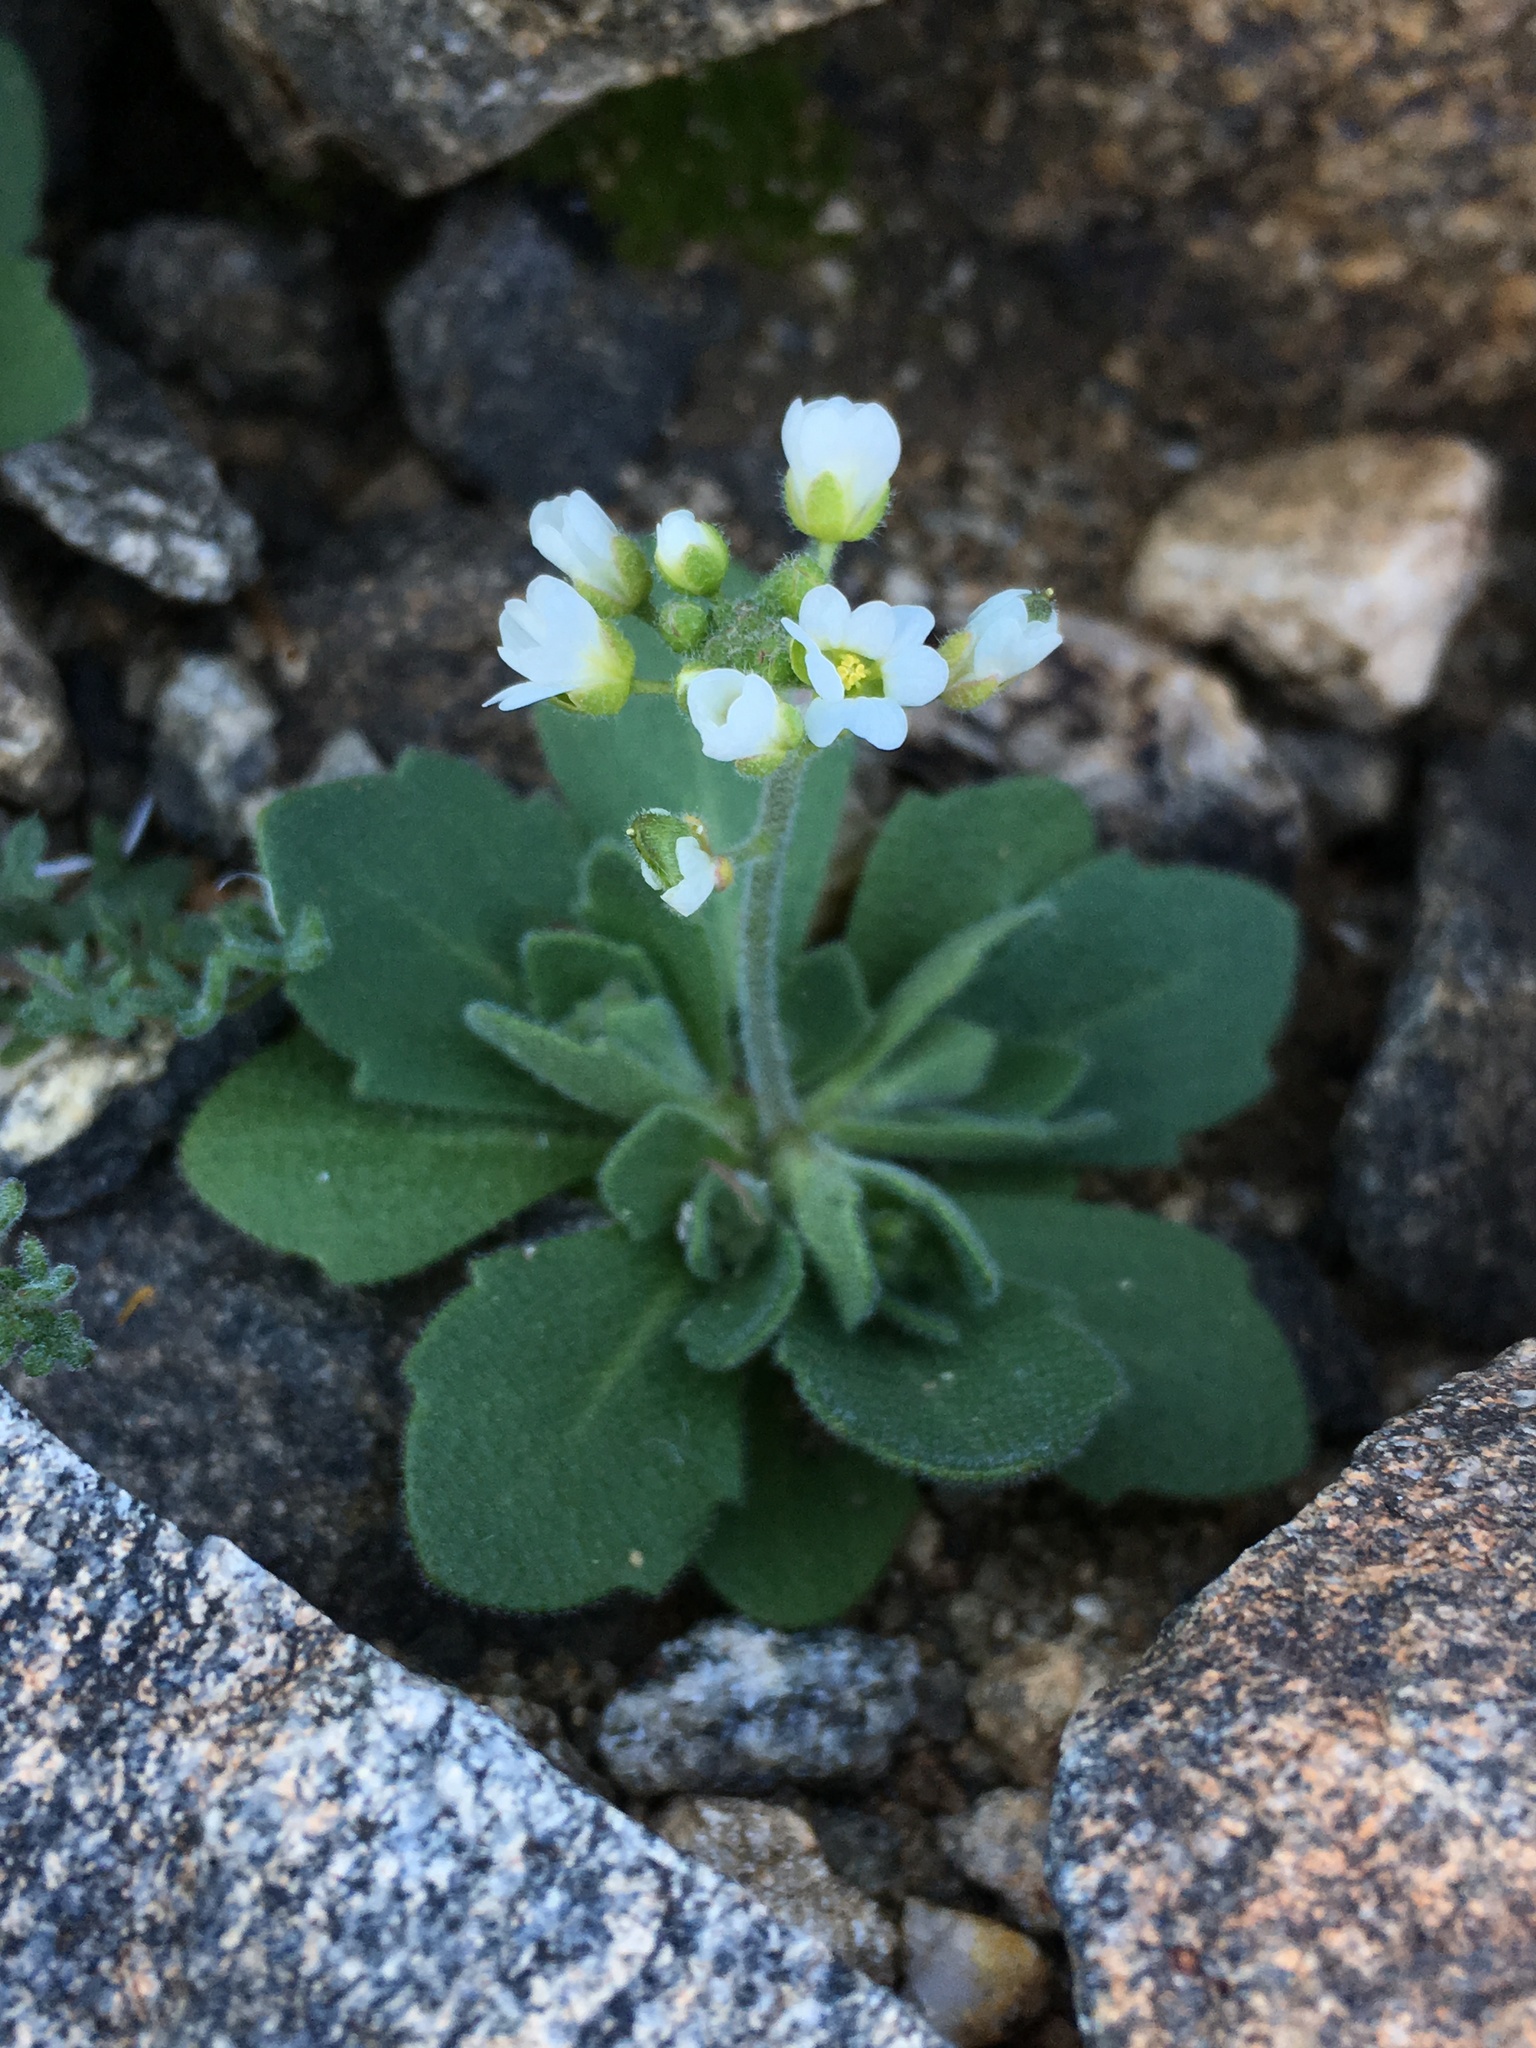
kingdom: Plantae
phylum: Tracheophyta
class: Magnoliopsida
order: Brassicales
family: Brassicaceae
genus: Tomostima
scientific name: Tomostima cuneifolia
